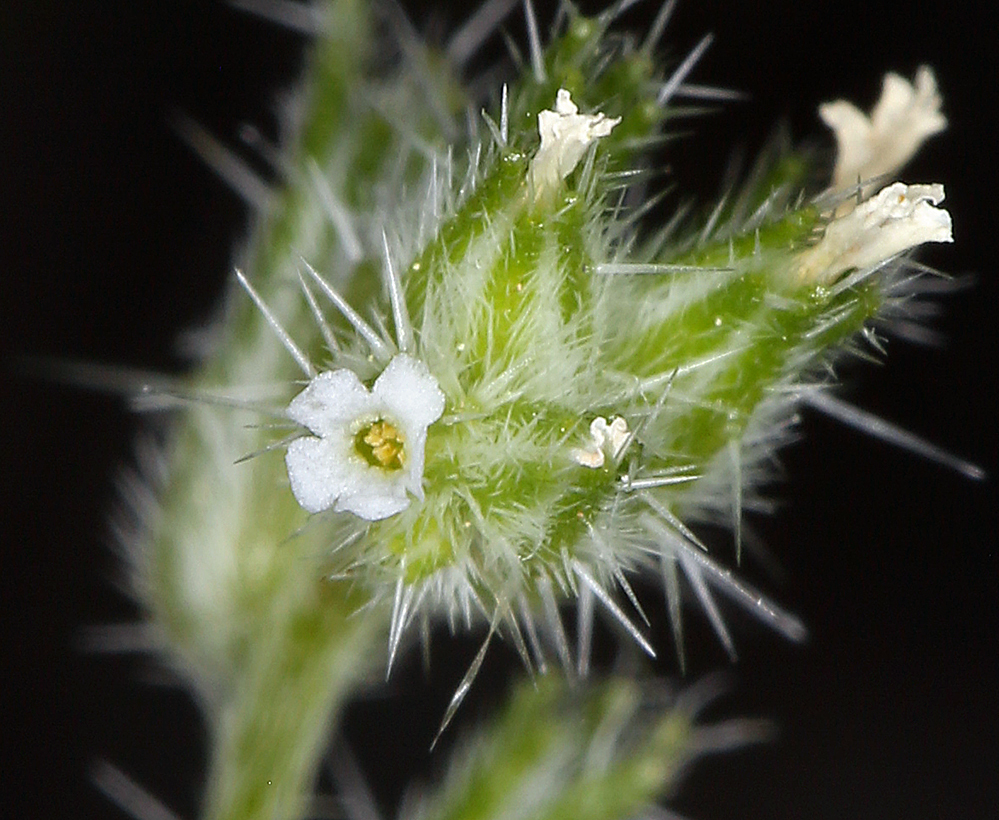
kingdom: Plantae
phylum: Tracheophyta
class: Magnoliopsida
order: Boraginales
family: Boraginaceae
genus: Cryptantha
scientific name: Cryptantha scoparia
